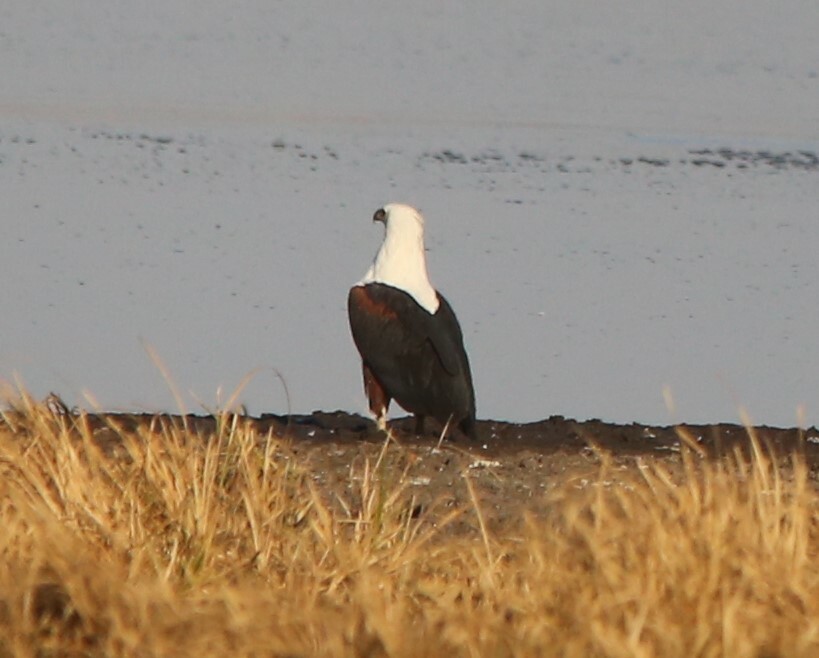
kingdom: Animalia
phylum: Chordata
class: Aves
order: Accipitriformes
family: Accipitridae
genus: Haliaeetus
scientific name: Haliaeetus vocifer
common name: African fish eagle
